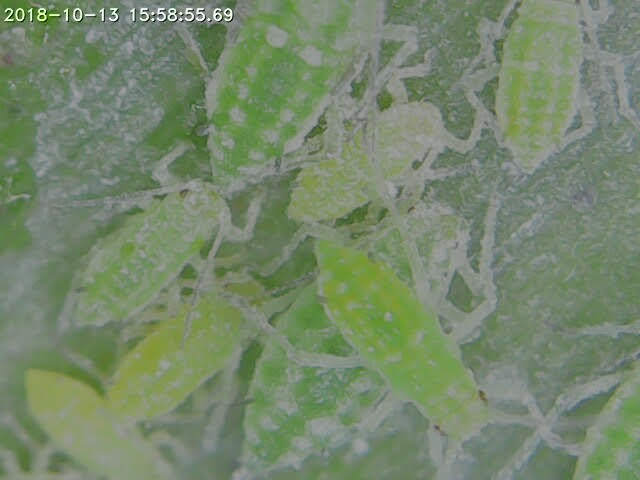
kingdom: Animalia
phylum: Arthropoda
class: Insecta
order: Hemiptera
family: Aphididae
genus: Hyalopterus
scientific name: Hyalopterus pruni
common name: Mealy plum aphid
